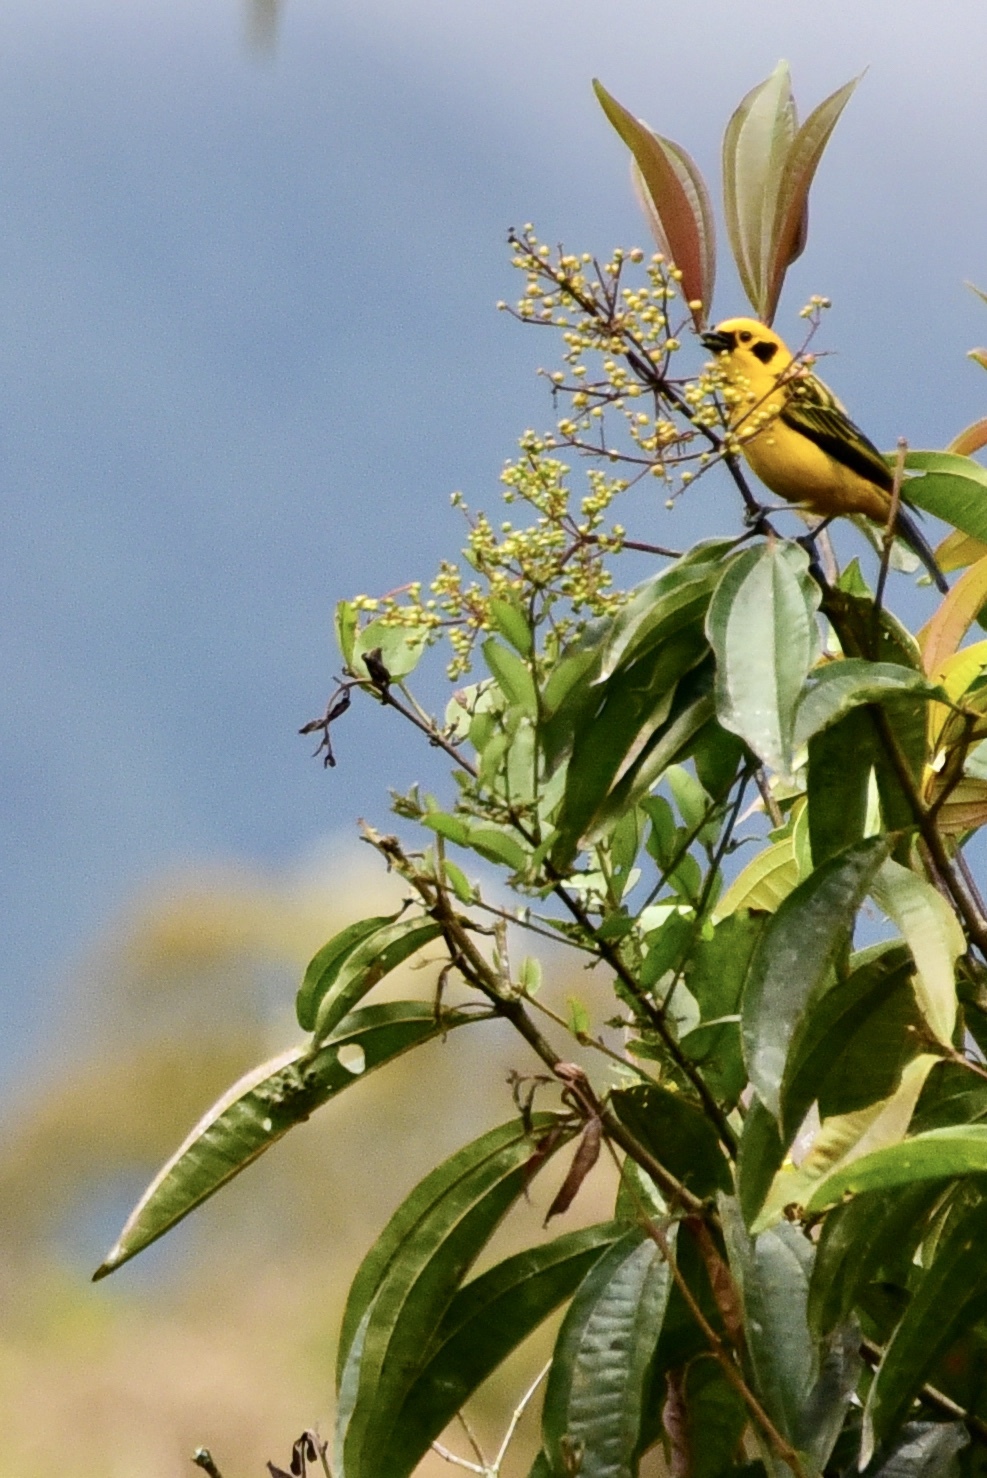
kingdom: Animalia
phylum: Chordata
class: Aves
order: Passeriformes
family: Thraupidae
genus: Tangara
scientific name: Tangara arthus
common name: Golden tanager
